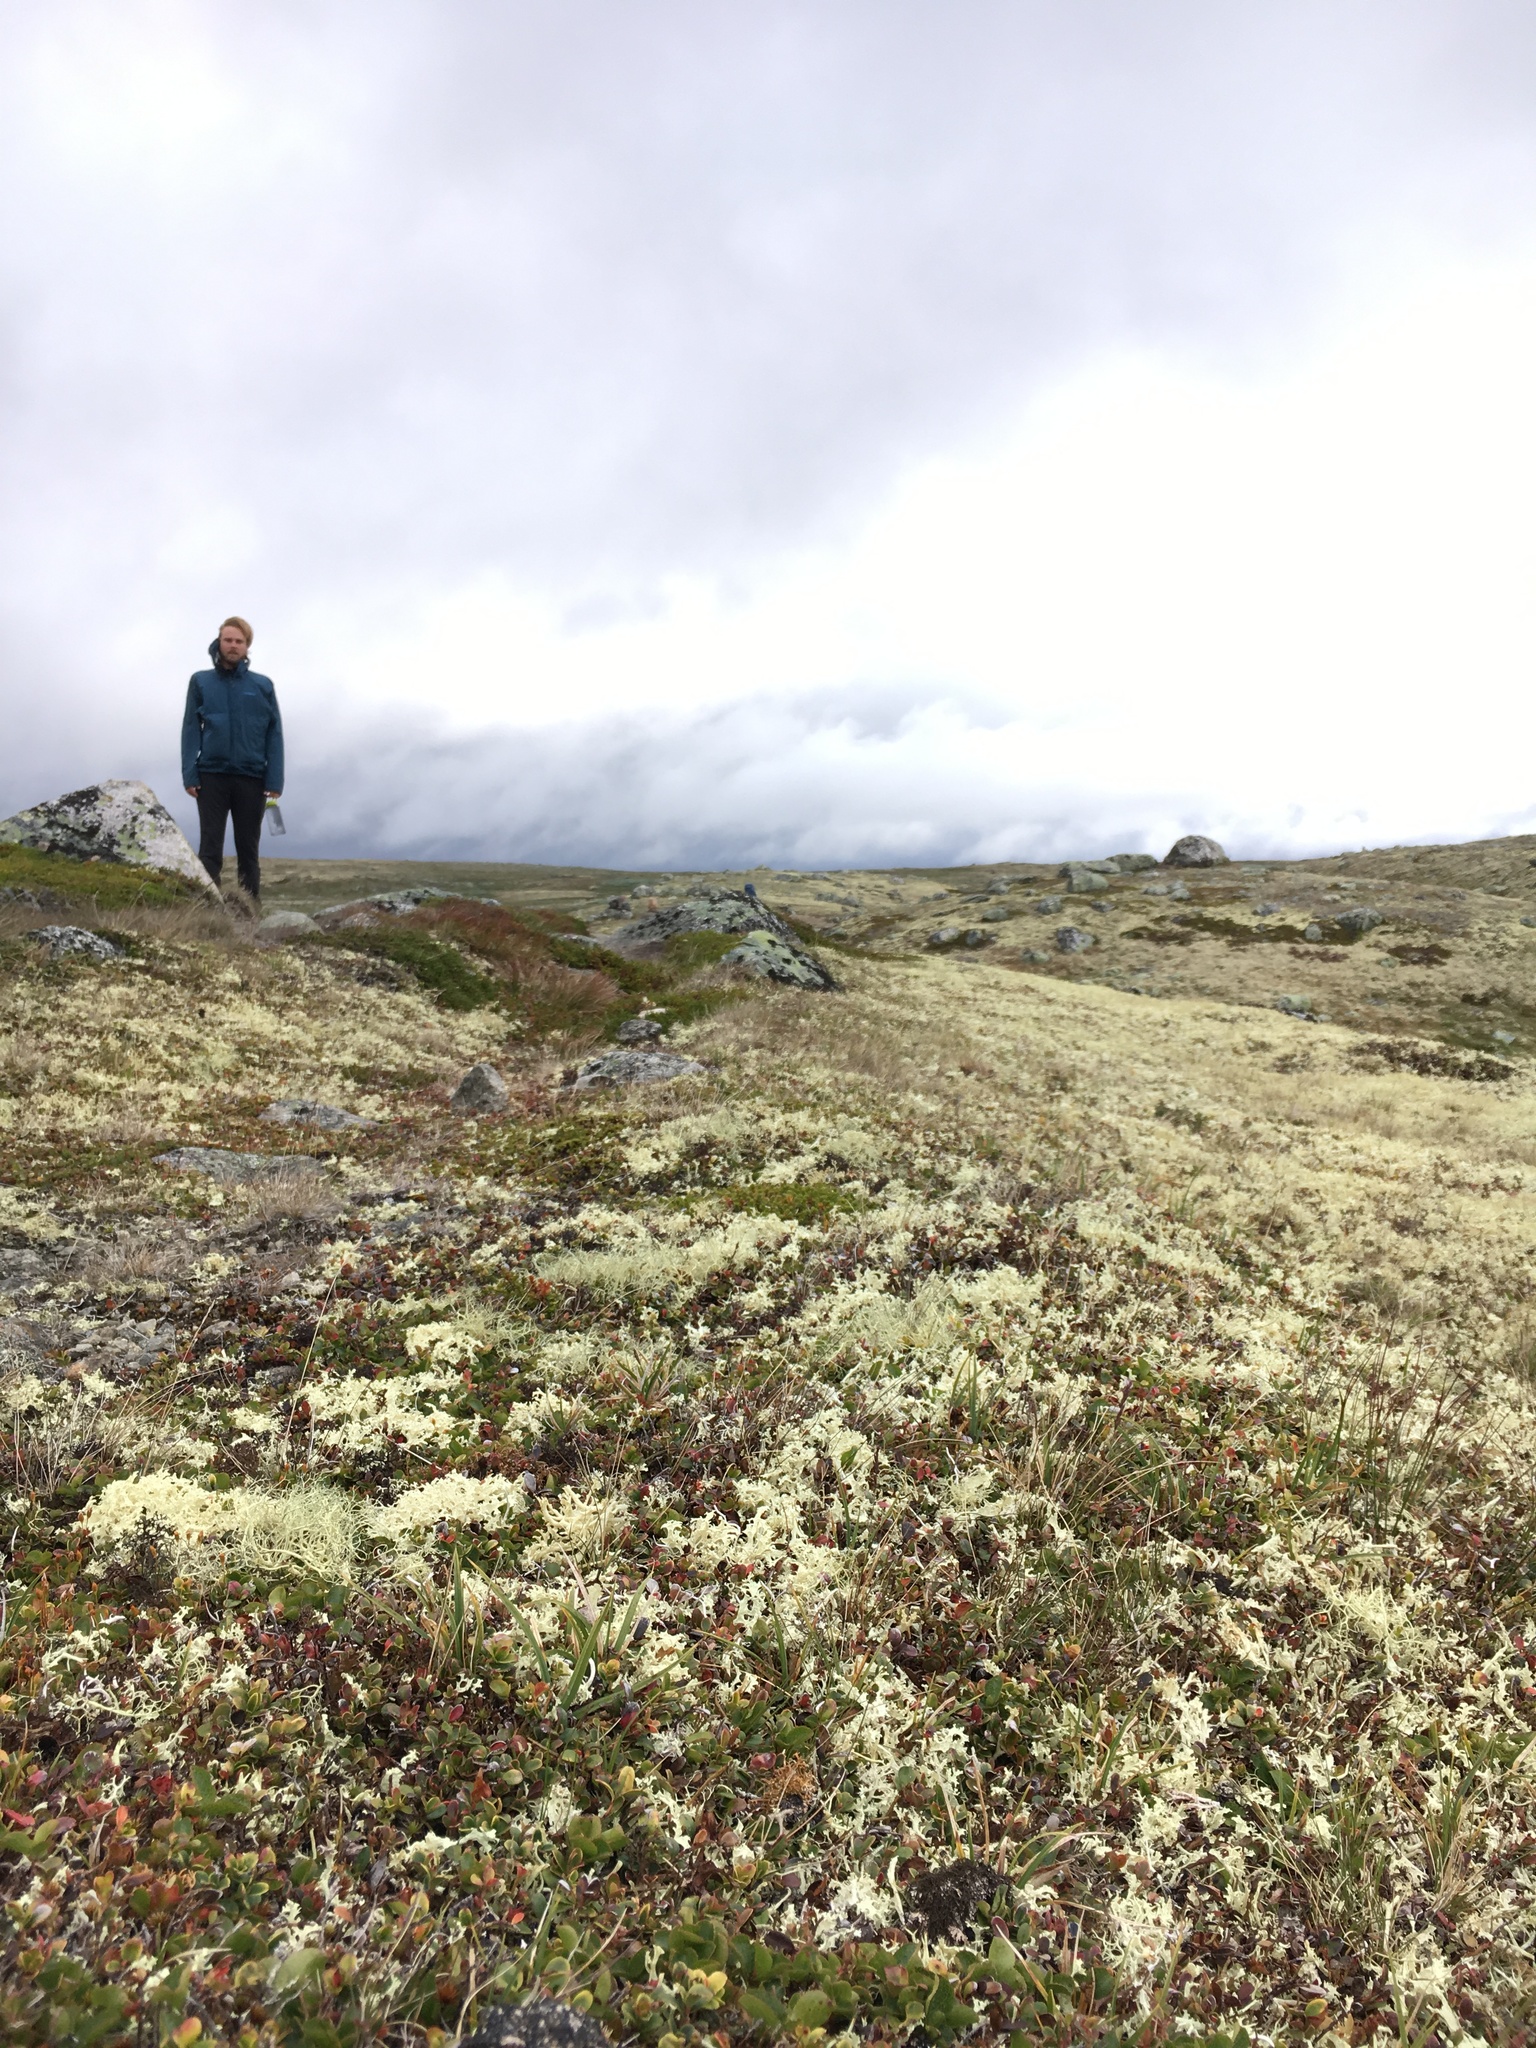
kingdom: Fungi
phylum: Ascomycota
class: Lecanoromycetes
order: Lecanorales
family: Parmeliaceae
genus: Nephromopsis
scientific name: Nephromopsis nivalis
